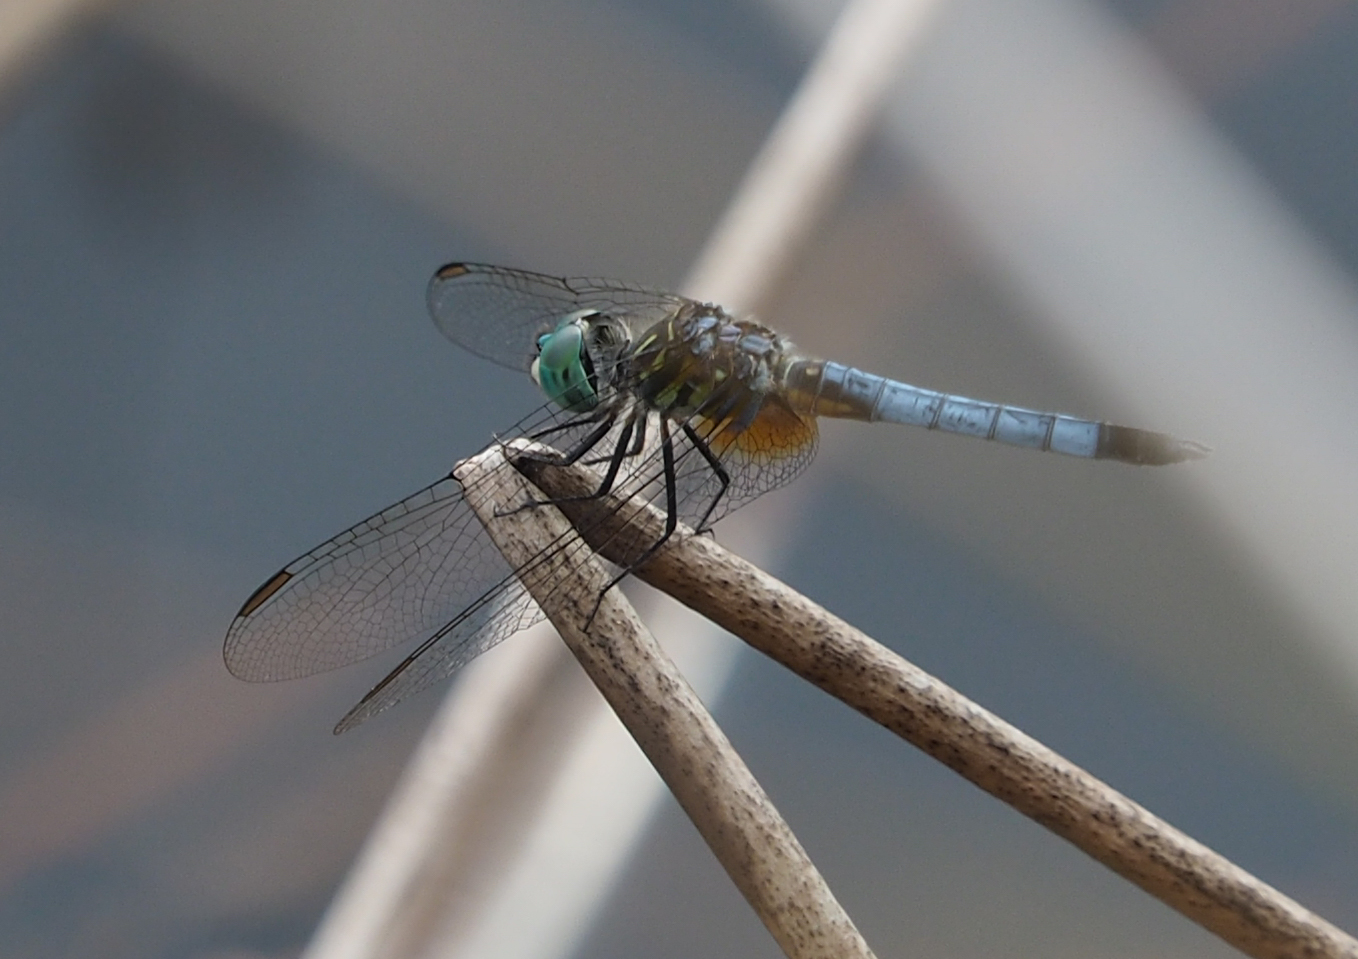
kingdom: Animalia
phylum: Arthropoda
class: Insecta
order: Odonata
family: Libellulidae
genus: Pachydiplax
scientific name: Pachydiplax longipennis
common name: Blue dasher
